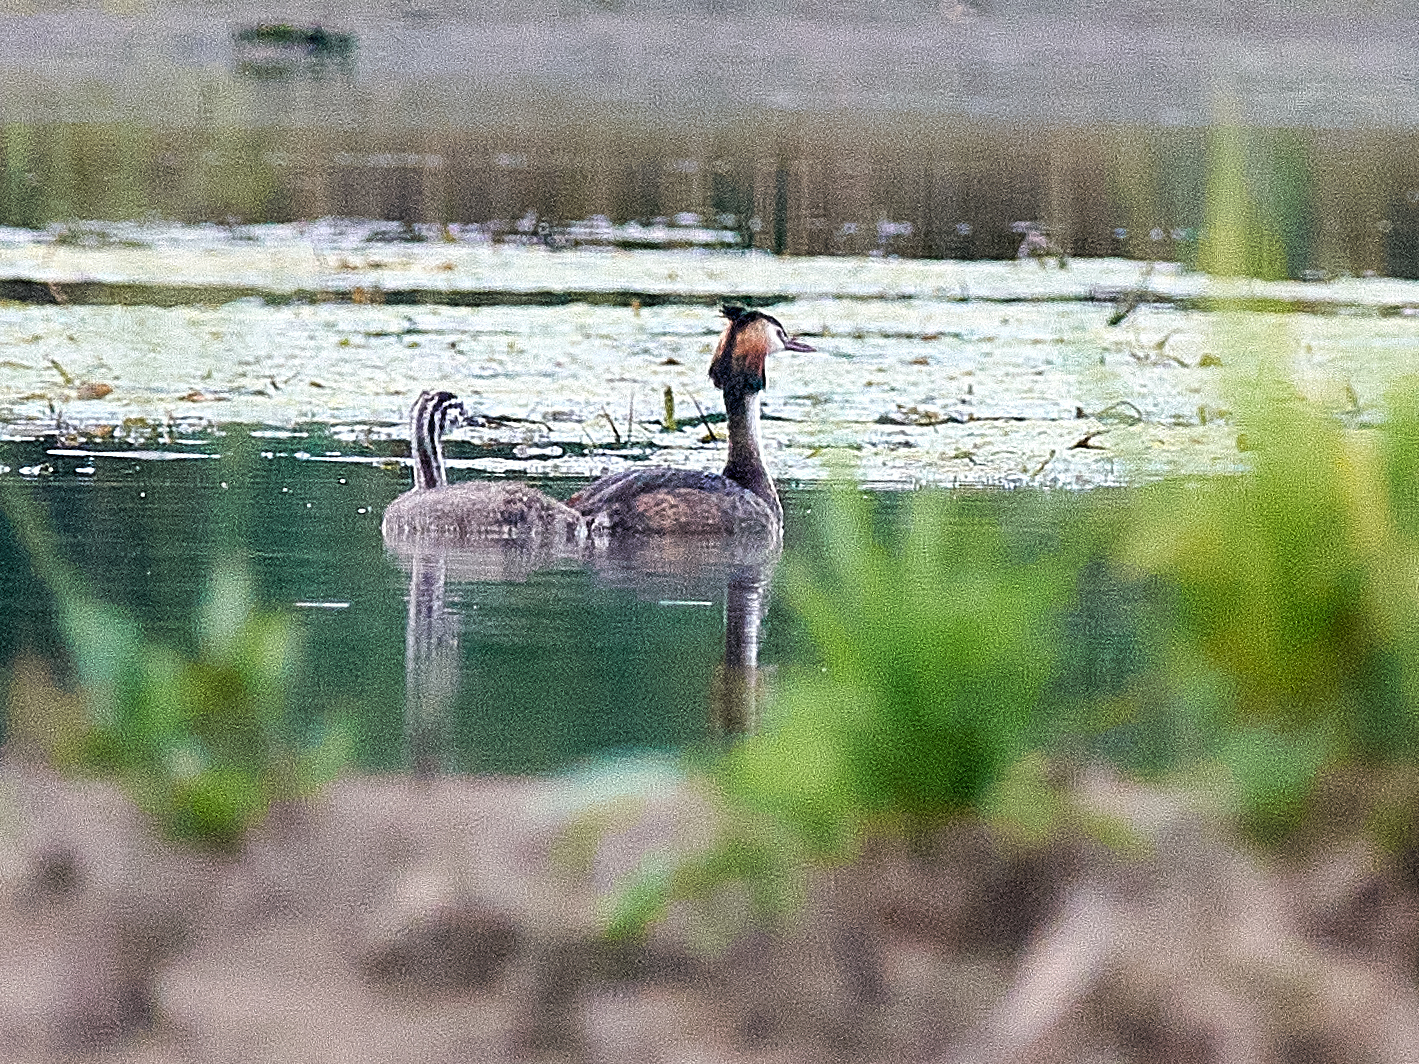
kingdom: Animalia
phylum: Chordata
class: Aves
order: Podicipediformes
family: Podicipedidae
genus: Podiceps
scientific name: Podiceps cristatus
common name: Great crested grebe
